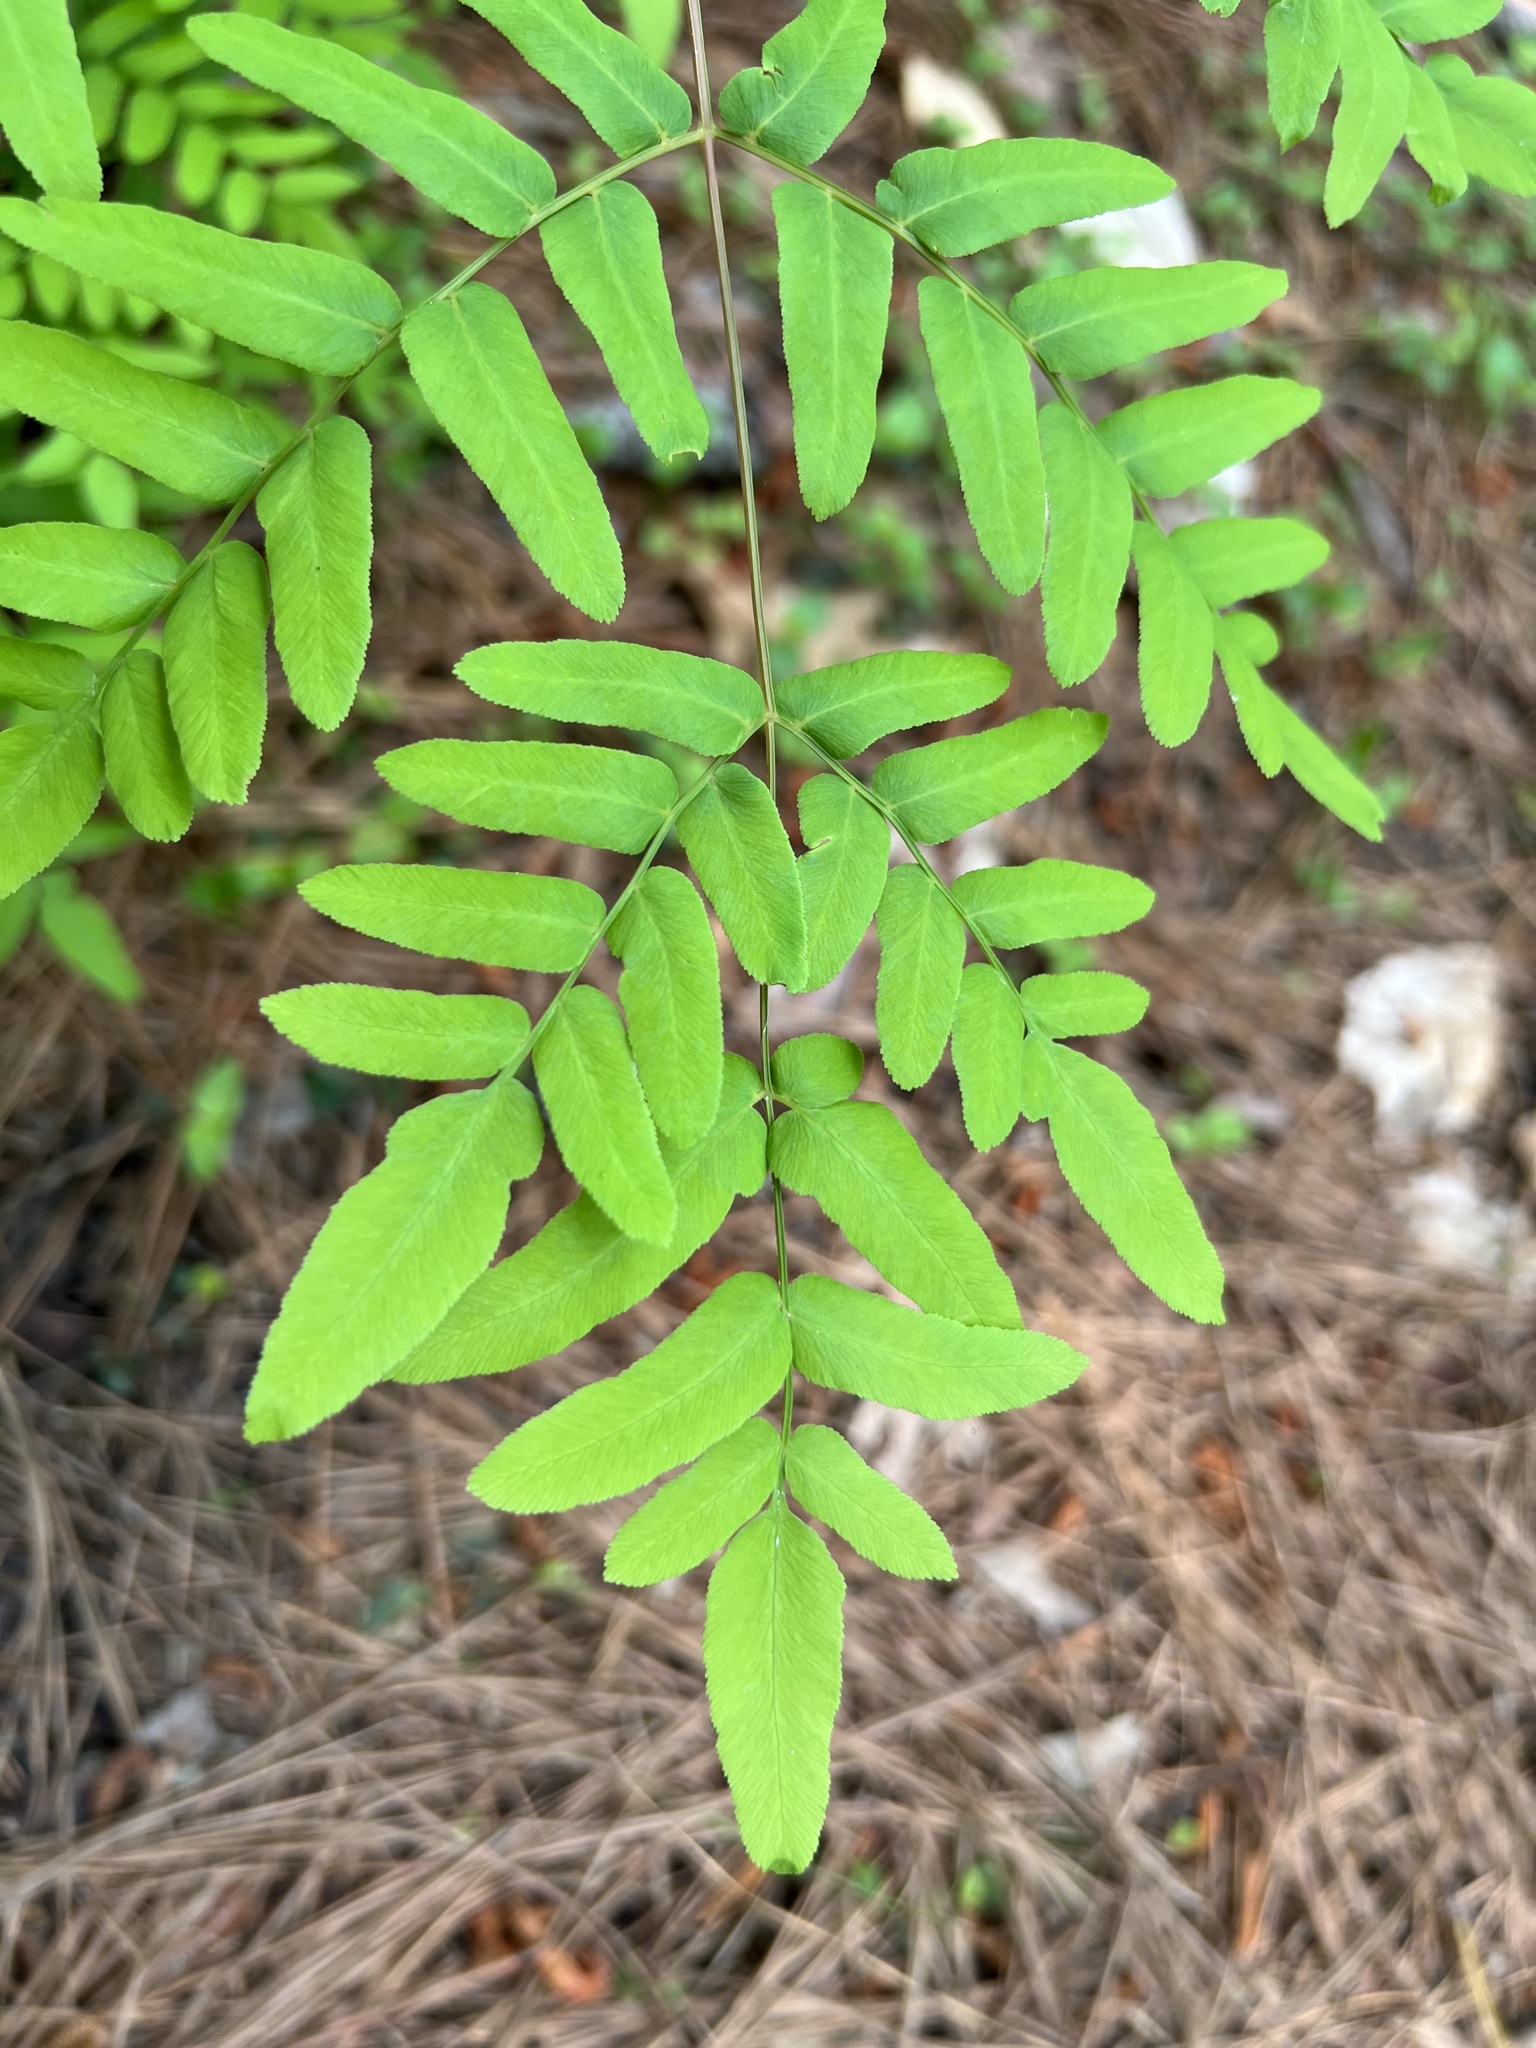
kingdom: Plantae
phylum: Tracheophyta
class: Polypodiopsida
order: Osmundales
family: Osmundaceae
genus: Osmunda
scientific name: Osmunda spectabilis
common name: American royal fern
